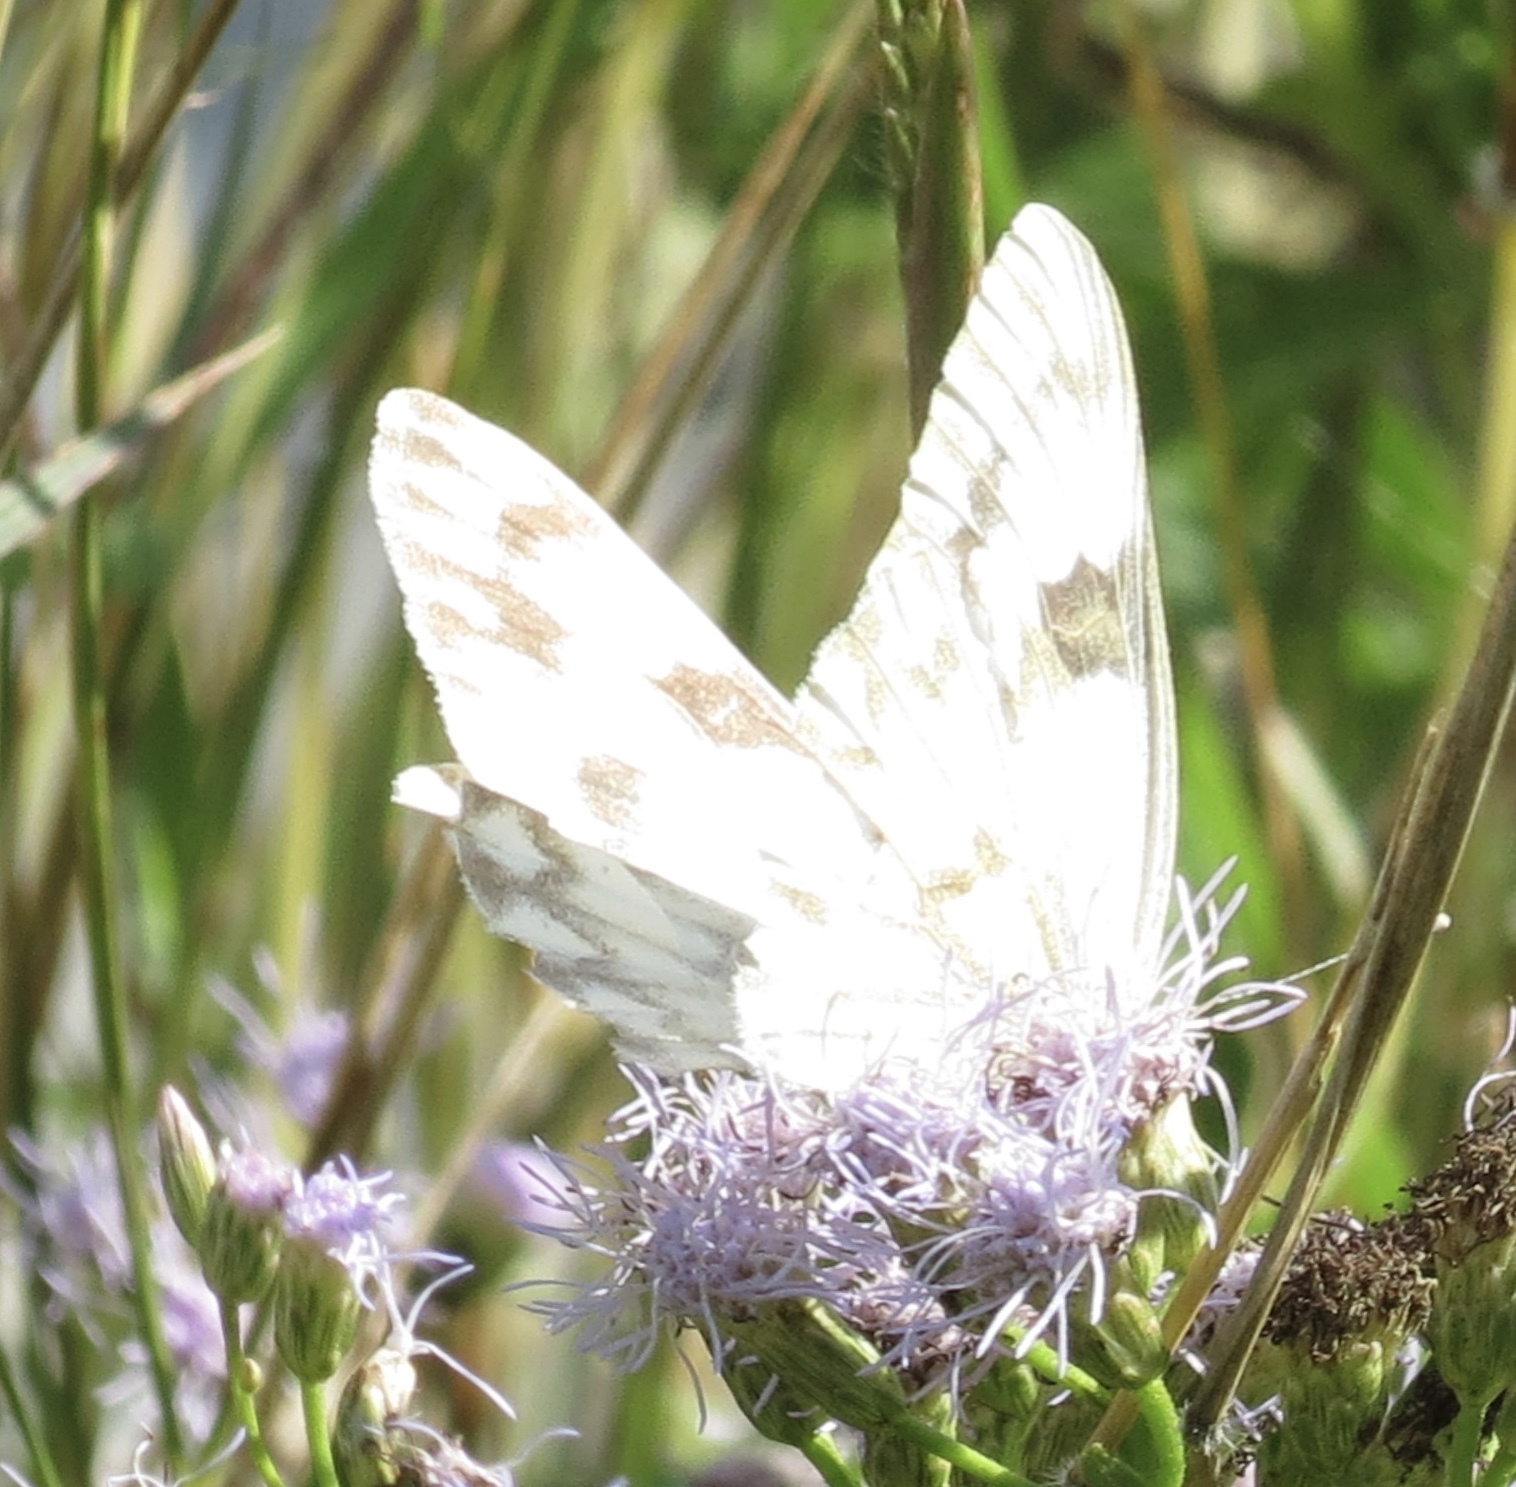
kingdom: Animalia
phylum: Arthropoda
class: Insecta
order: Lepidoptera
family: Pieridae
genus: Pontia
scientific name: Pontia protodice
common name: Checkered white
